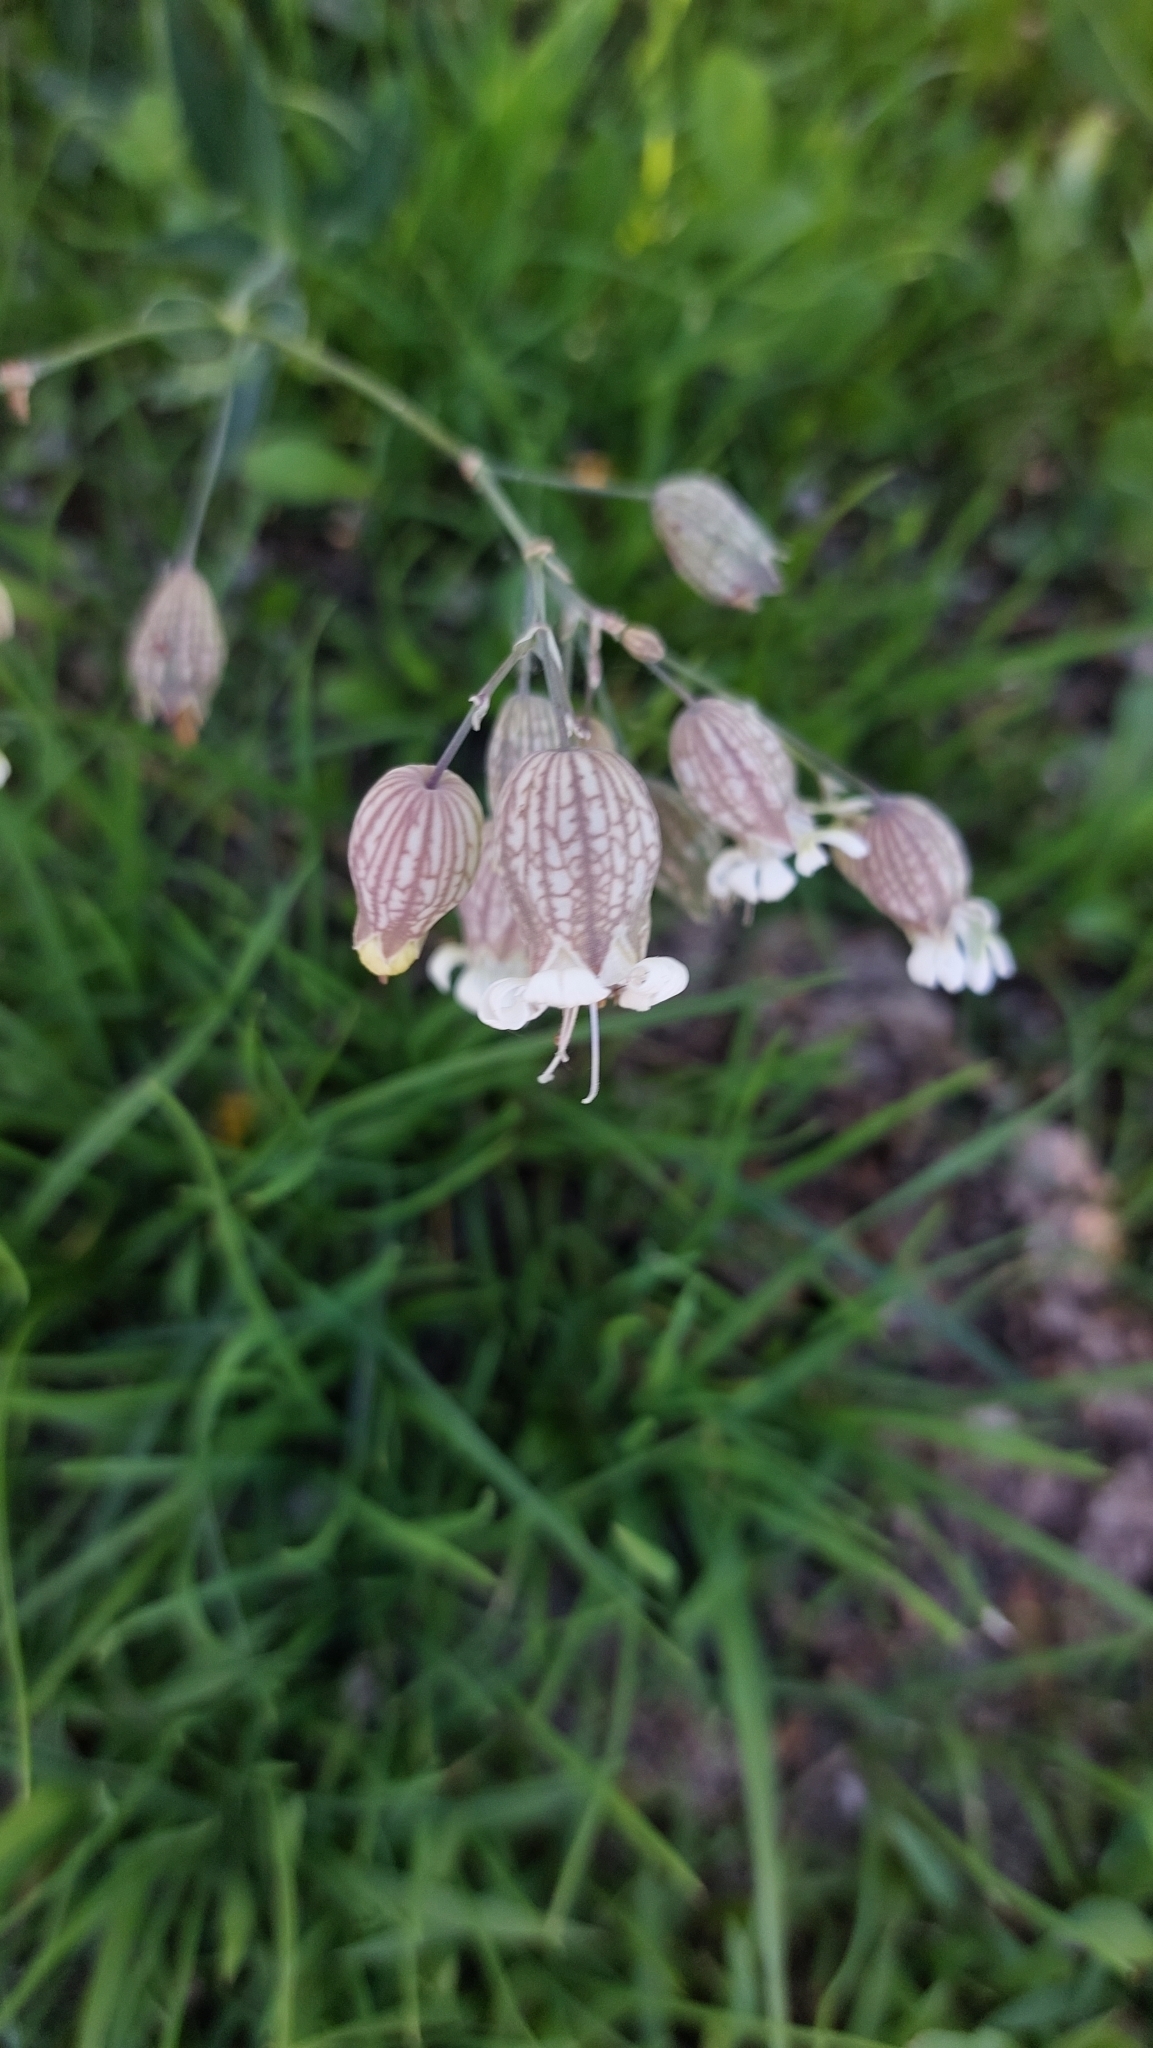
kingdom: Plantae
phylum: Tracheophyta
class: Magnoliopsida
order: Caryophyllales
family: Caryophyllaceae
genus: Silene
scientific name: Silene vulgaris
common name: Bladder campion
